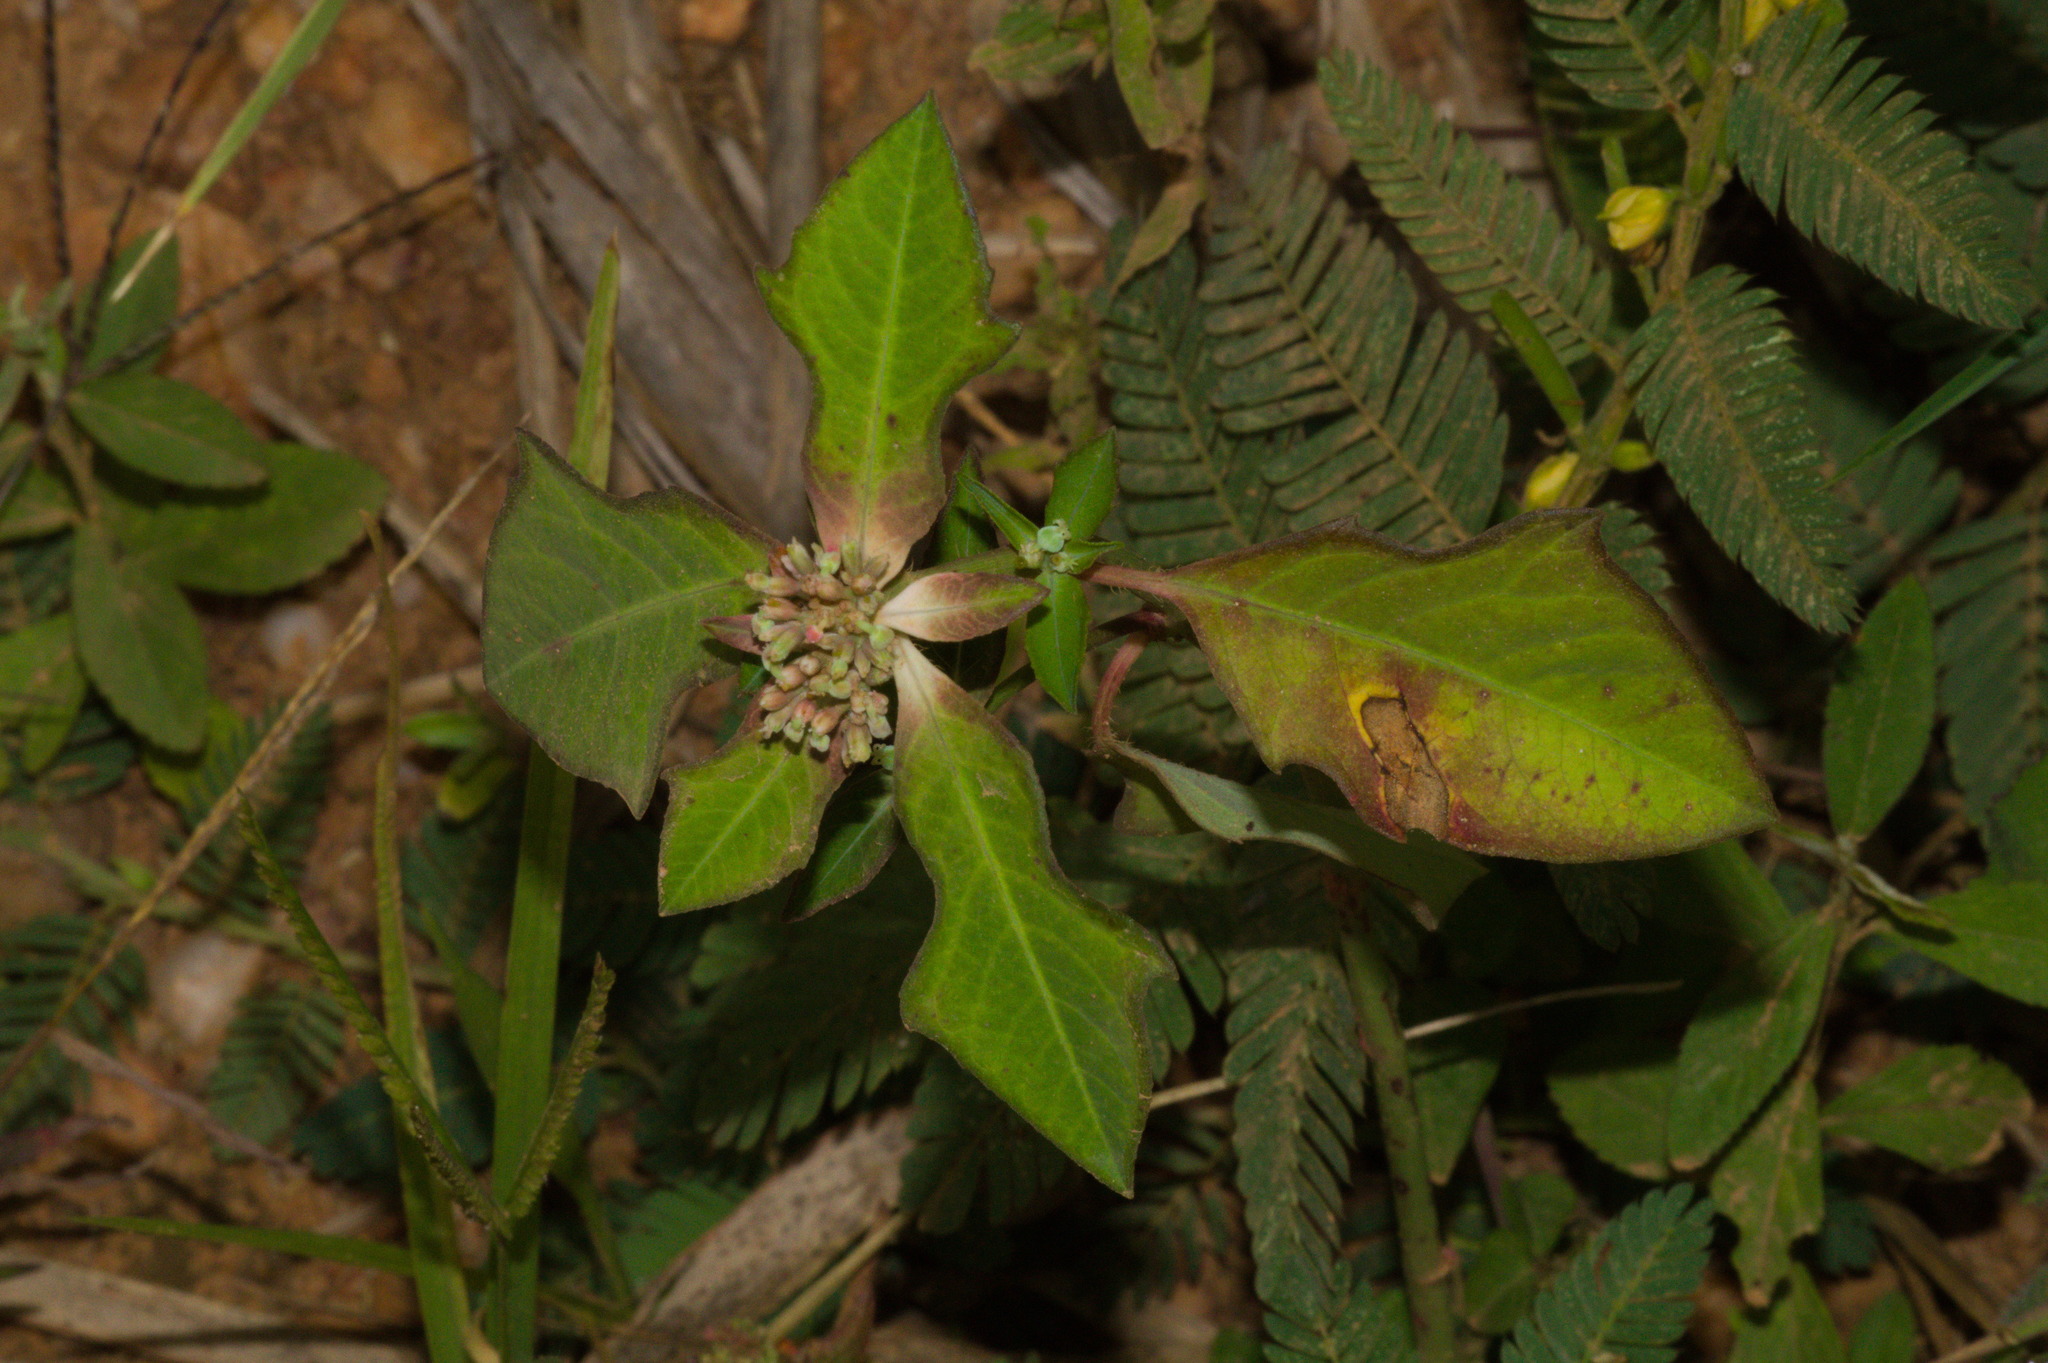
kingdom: Plantae
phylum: Tracheophyta
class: Magnoliopsida
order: Malpighiales
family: Euphorbiaceae
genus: Euphorbia
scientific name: Euphorbia heterophylla
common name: Mexican fireplant
